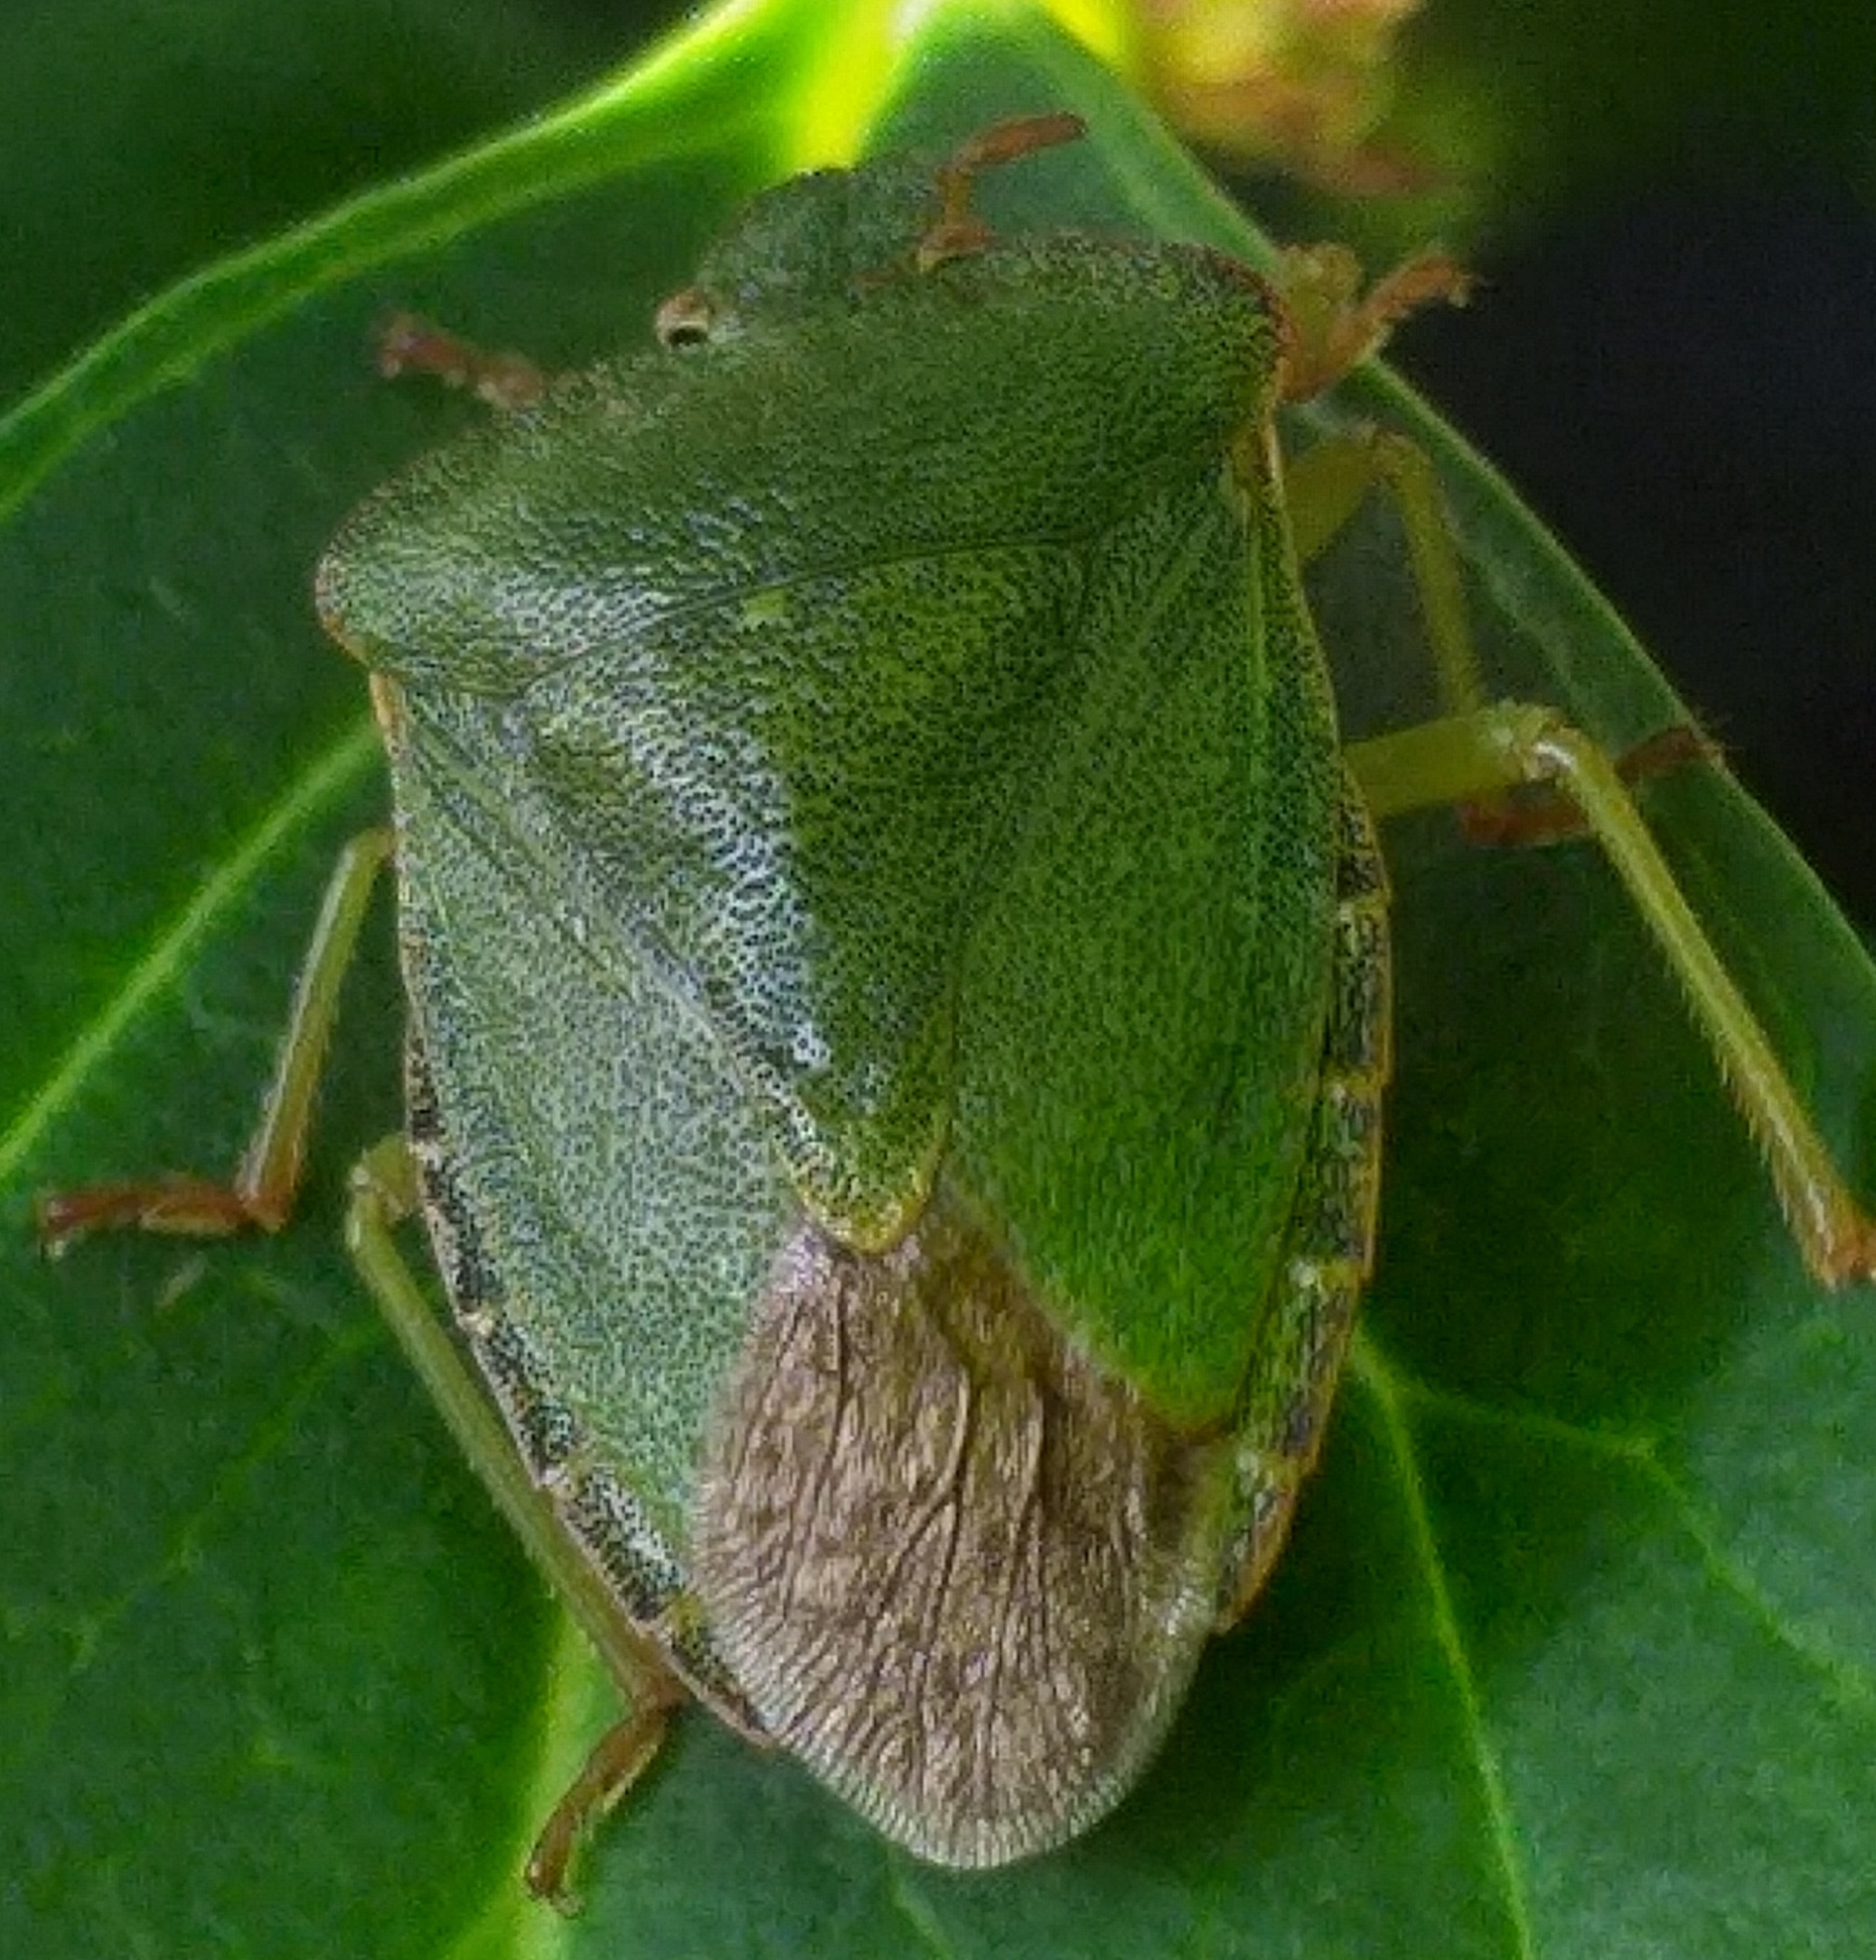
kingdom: Animalia
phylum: Arthropoda
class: Insecta
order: Hemiptera
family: Pentatomidae
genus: Palomena
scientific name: Palomena prasina
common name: Green shieldbug
